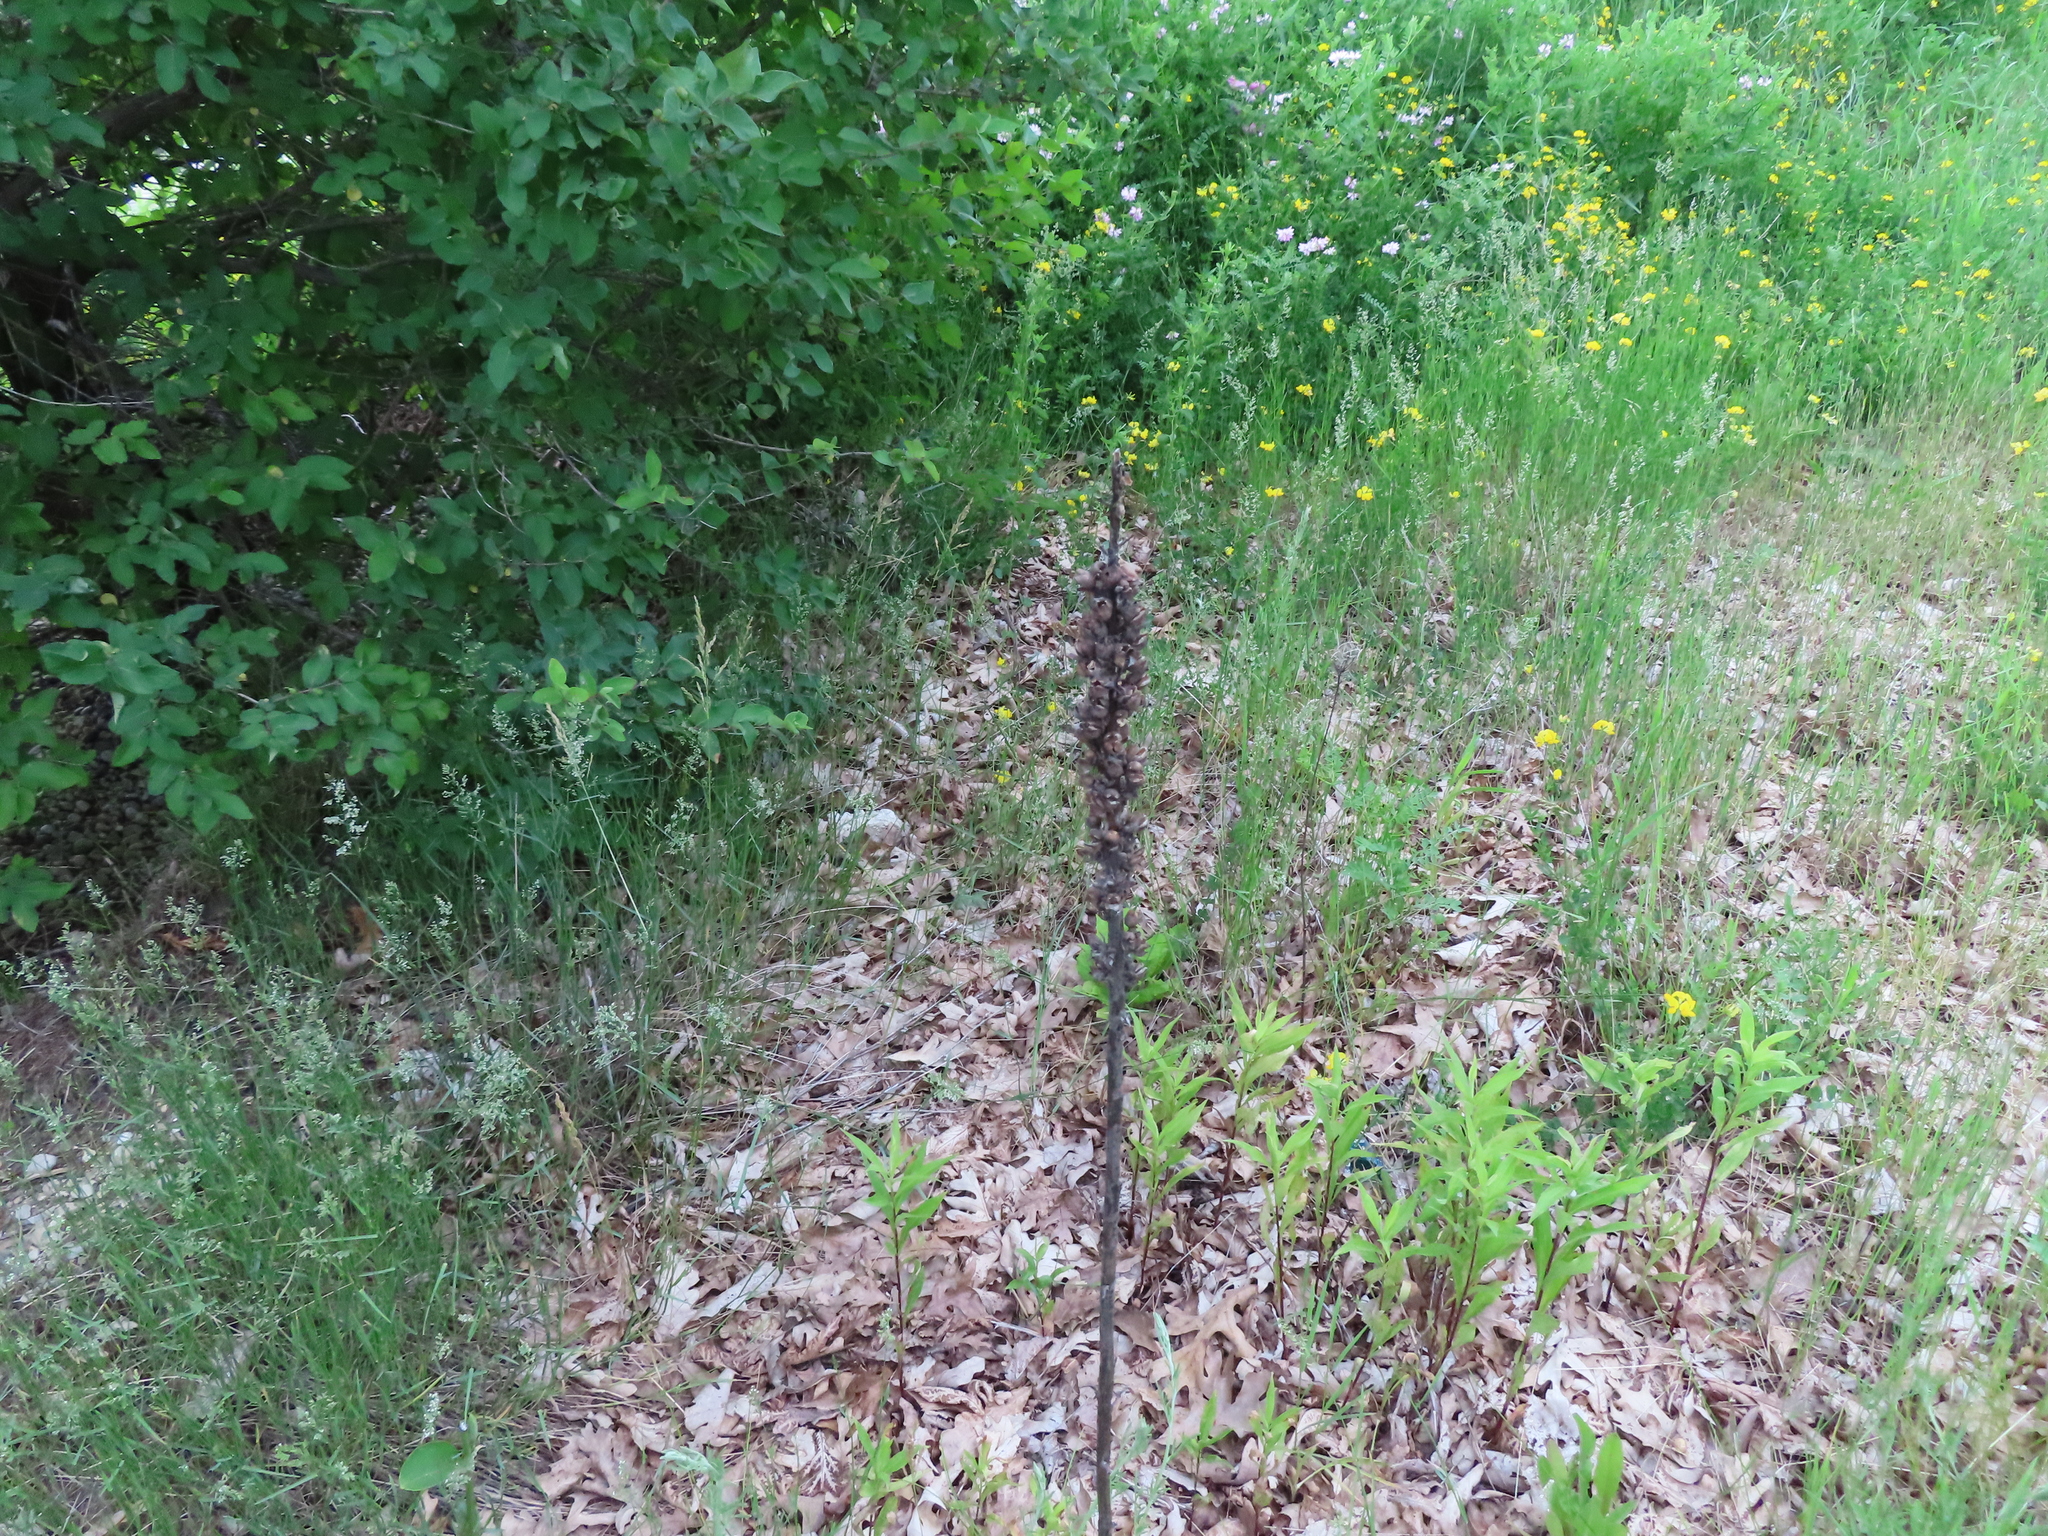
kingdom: Plantae
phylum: Tracheophyta
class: Magnoliopsida
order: Lamiales
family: Scrophulariaceae
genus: Verbascum
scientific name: Verbascum thapsus
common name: Common mullein
